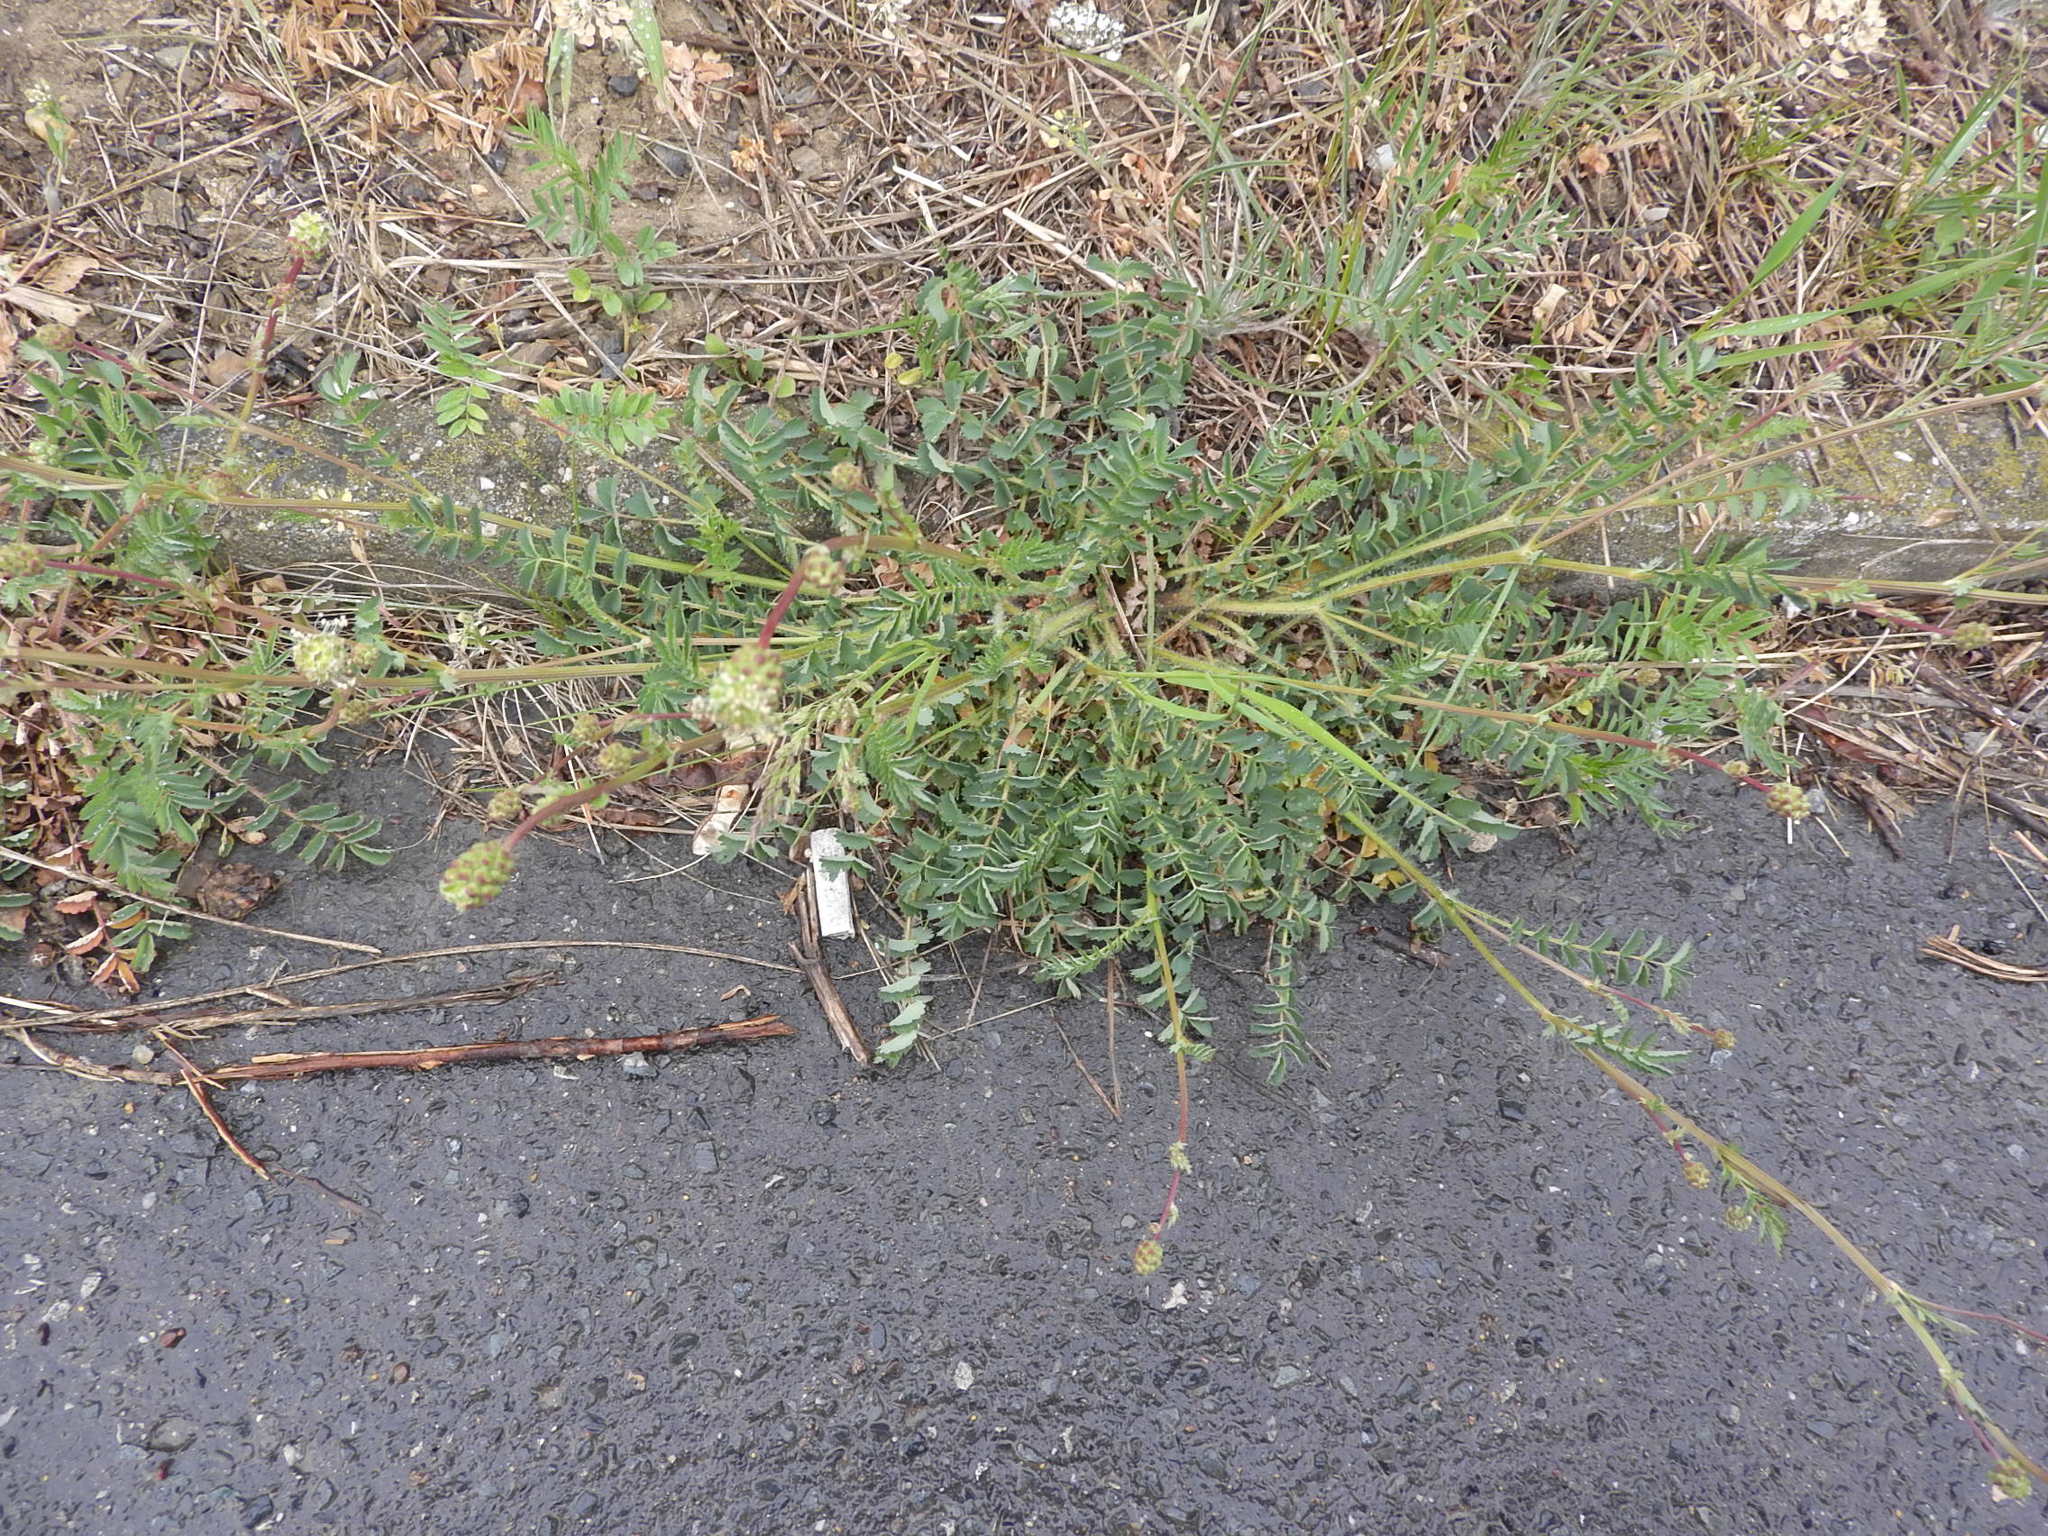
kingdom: Plantae
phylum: Tracheophyta
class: Magnoliopsida
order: Rosales
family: Rosaceae
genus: Poterium
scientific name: Poterium sanguisorba
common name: Salad burnet
